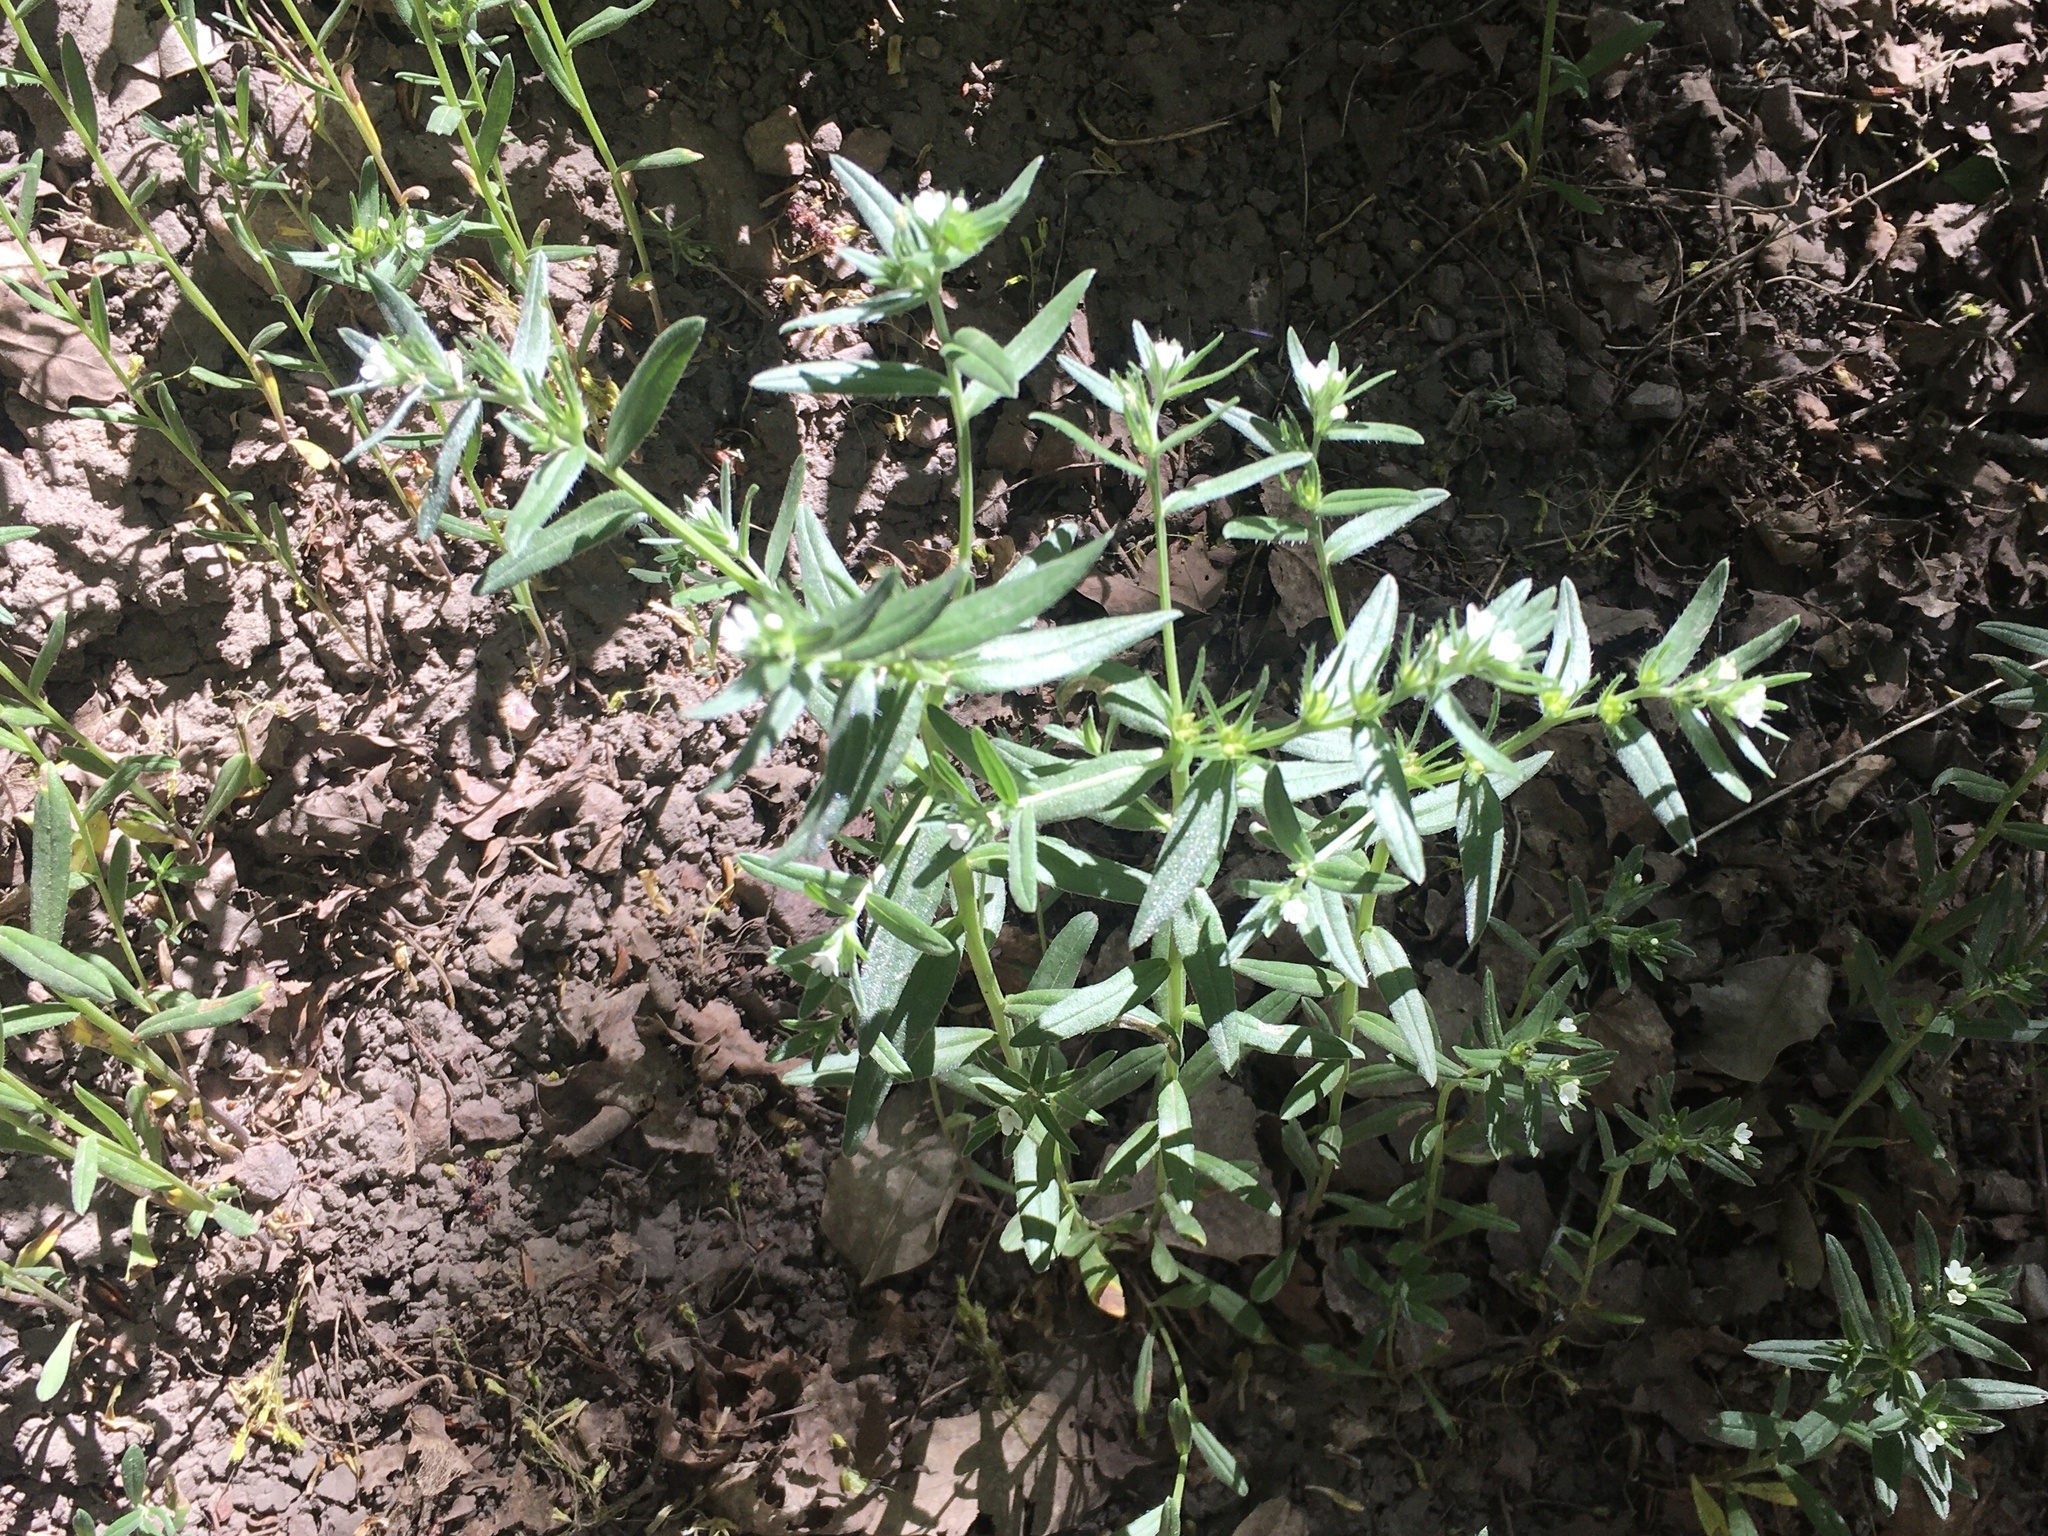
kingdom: Plantae
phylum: Tracheophyta
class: Magnoliopsida
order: Boraginales
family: Boraginaceae
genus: Buglossoides
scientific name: Buglossoides arvensis
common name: Corn gromwell
